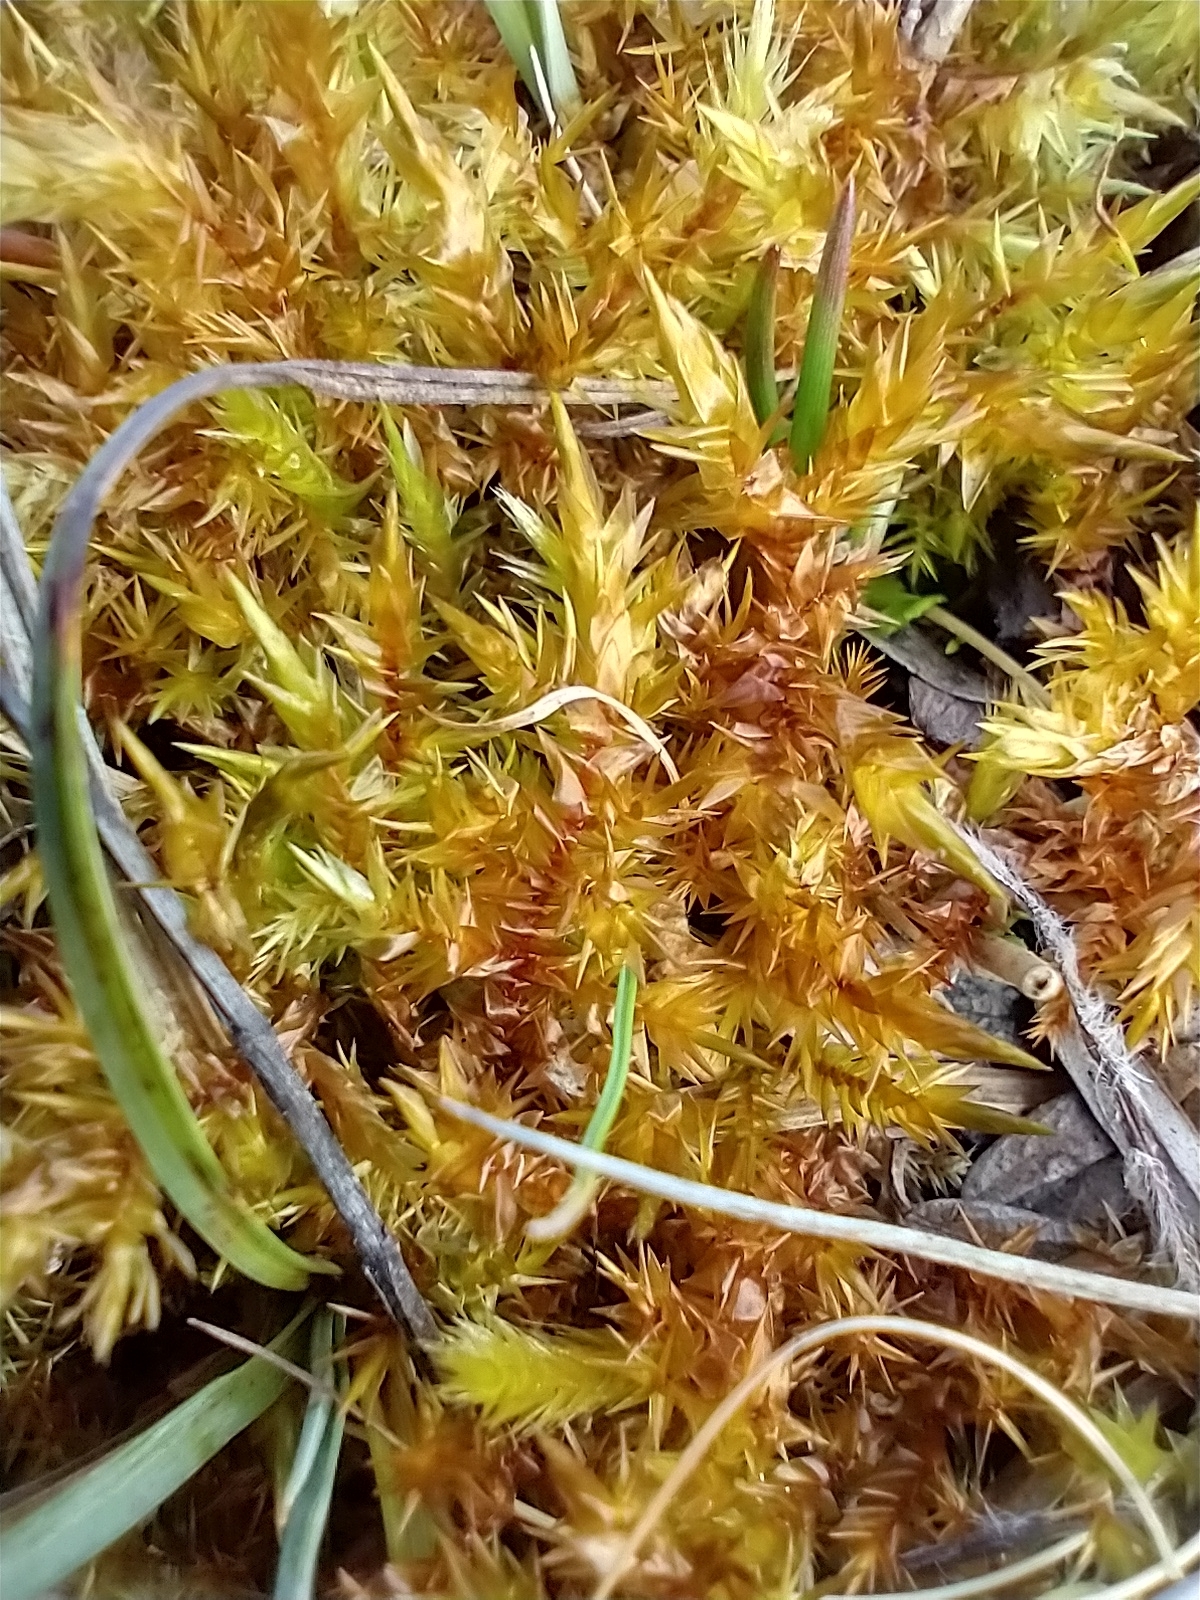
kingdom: Plantae
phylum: Bryophyta
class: Bryopsida
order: Hypnales
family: Pylaisiaceae
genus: Calliergonella
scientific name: Calliergonella cuspidata
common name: Common large wetland moss
